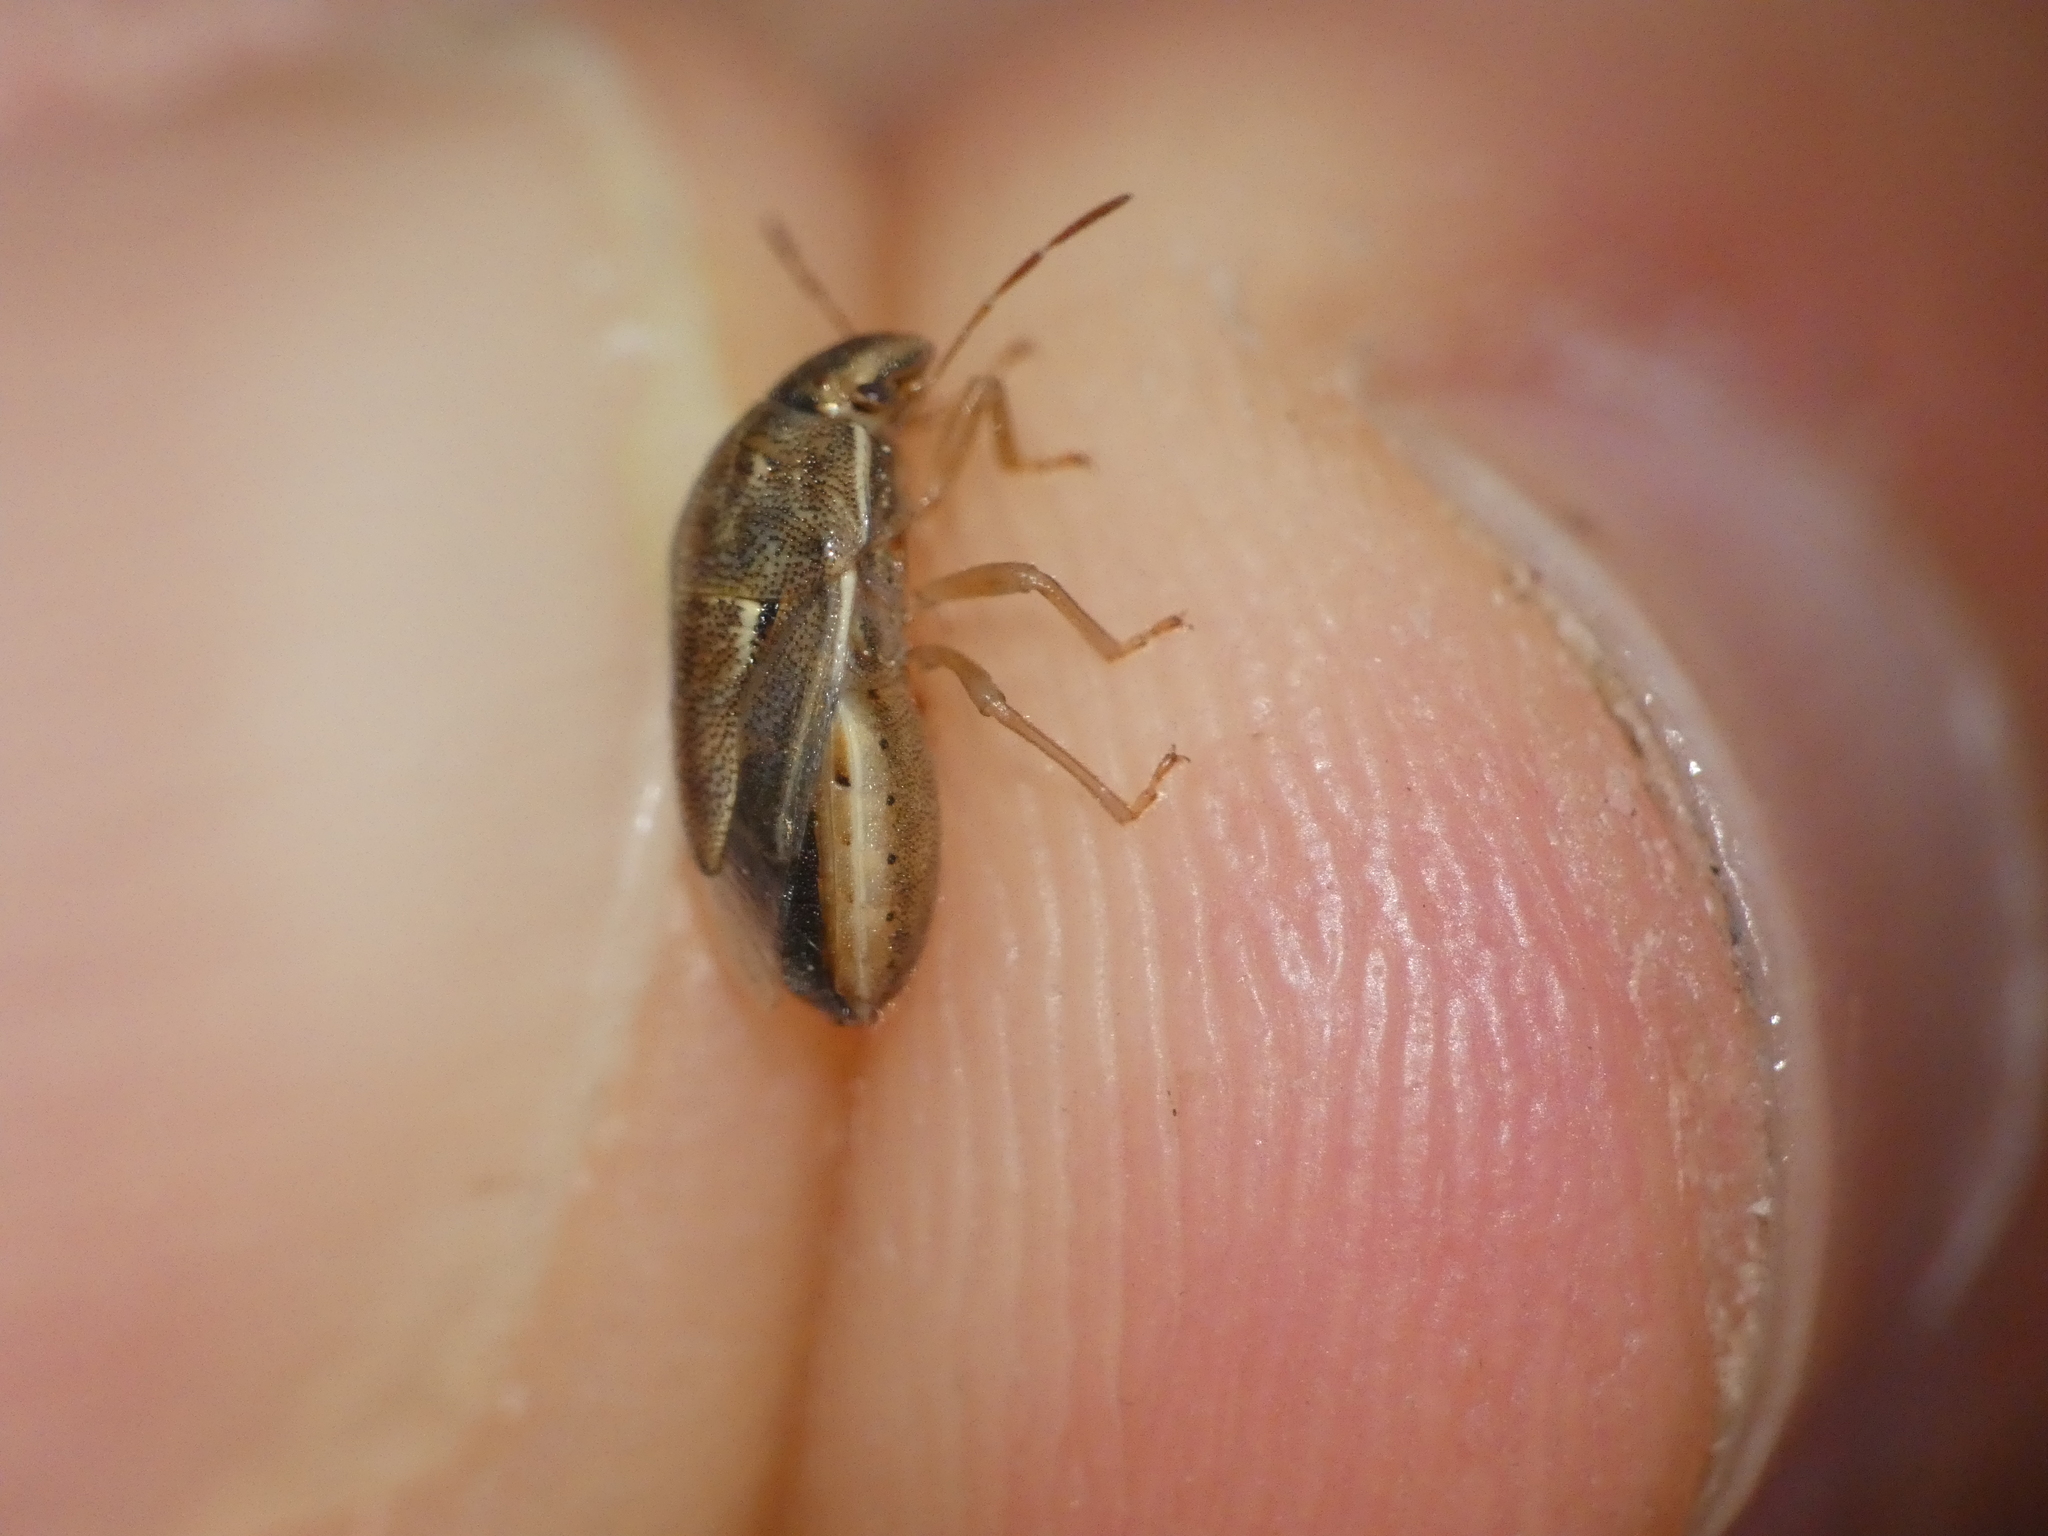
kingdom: Animalia
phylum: Arthropoda
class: Insecta
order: Hemiptera
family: Pentatomidae
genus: Neottiglossa
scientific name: Neottiglossa bifida
